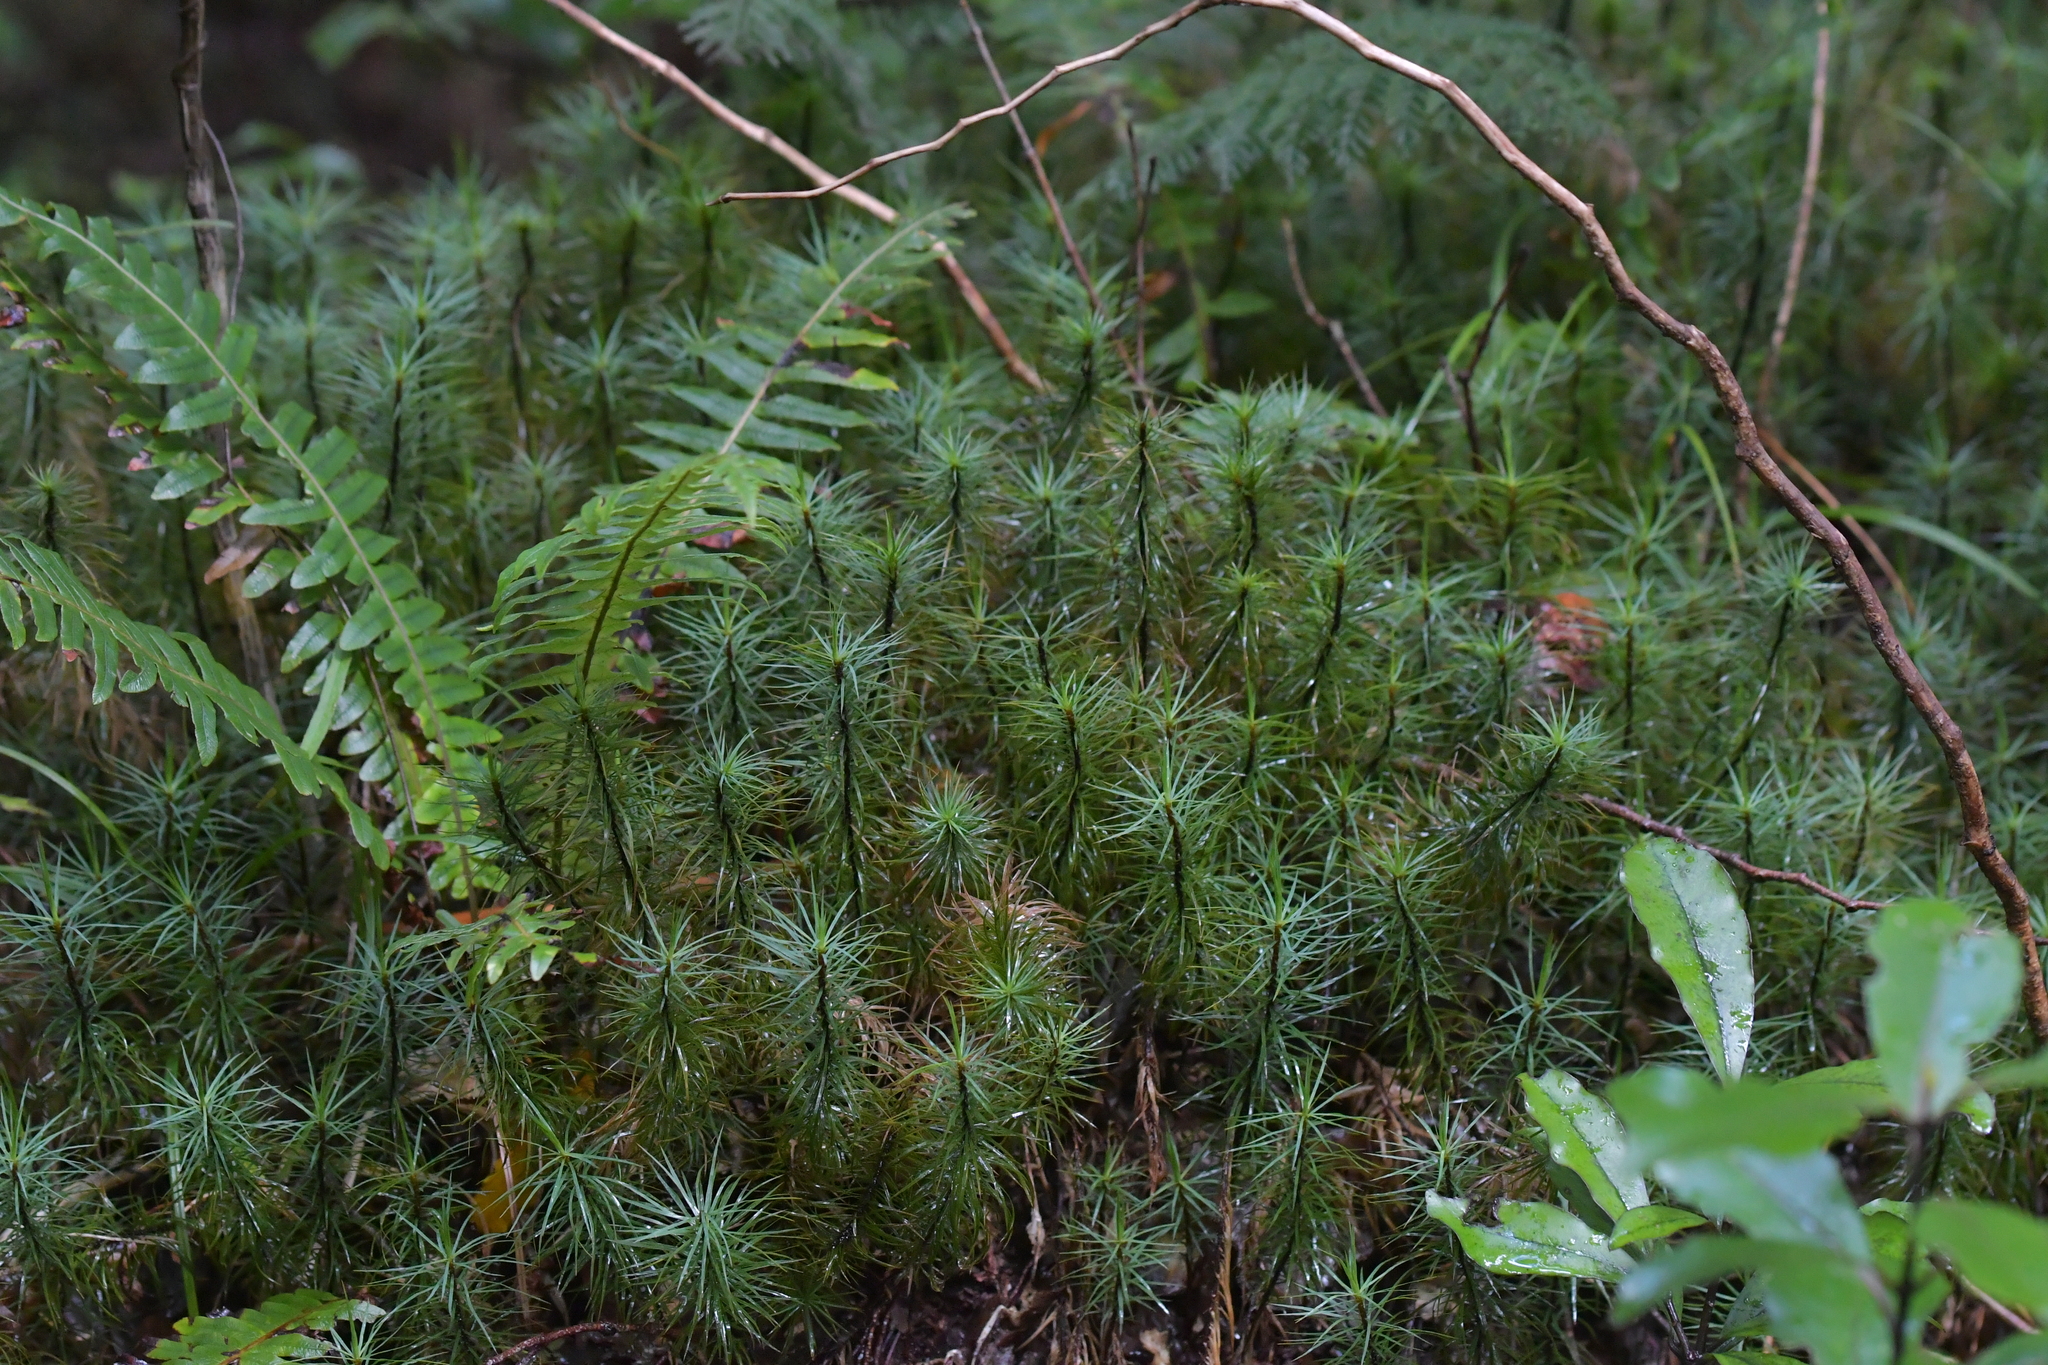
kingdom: Plantae
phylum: Bryophyta
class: Polytrichopsida
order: Polytrichales
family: Polytrichaceae
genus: Dawsonia
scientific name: Dawsonia superba
